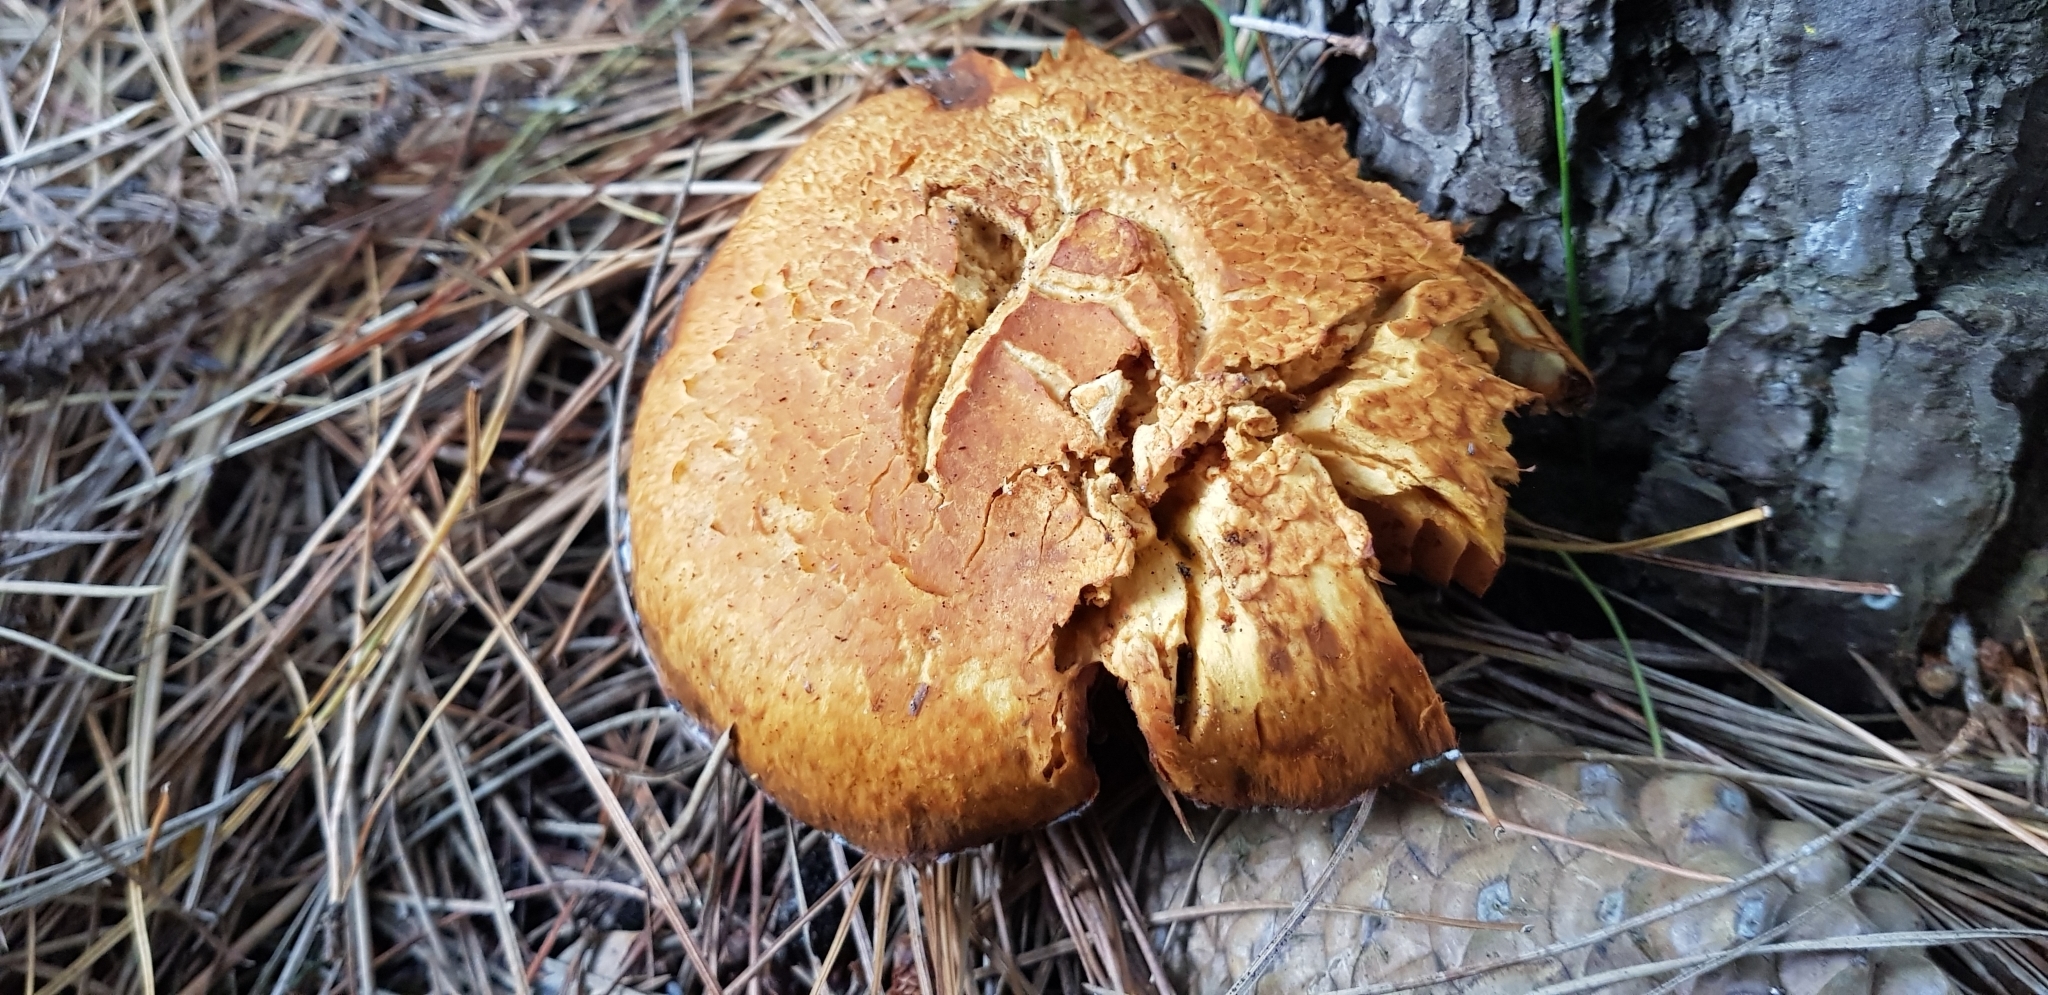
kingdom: Fungi
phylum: Basidiomycota
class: Agaricomycetes
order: Agaricales
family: Hymenogastraceae
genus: Gymnopilus
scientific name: Gymnopilus junonius
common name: Spectacular rustgill
